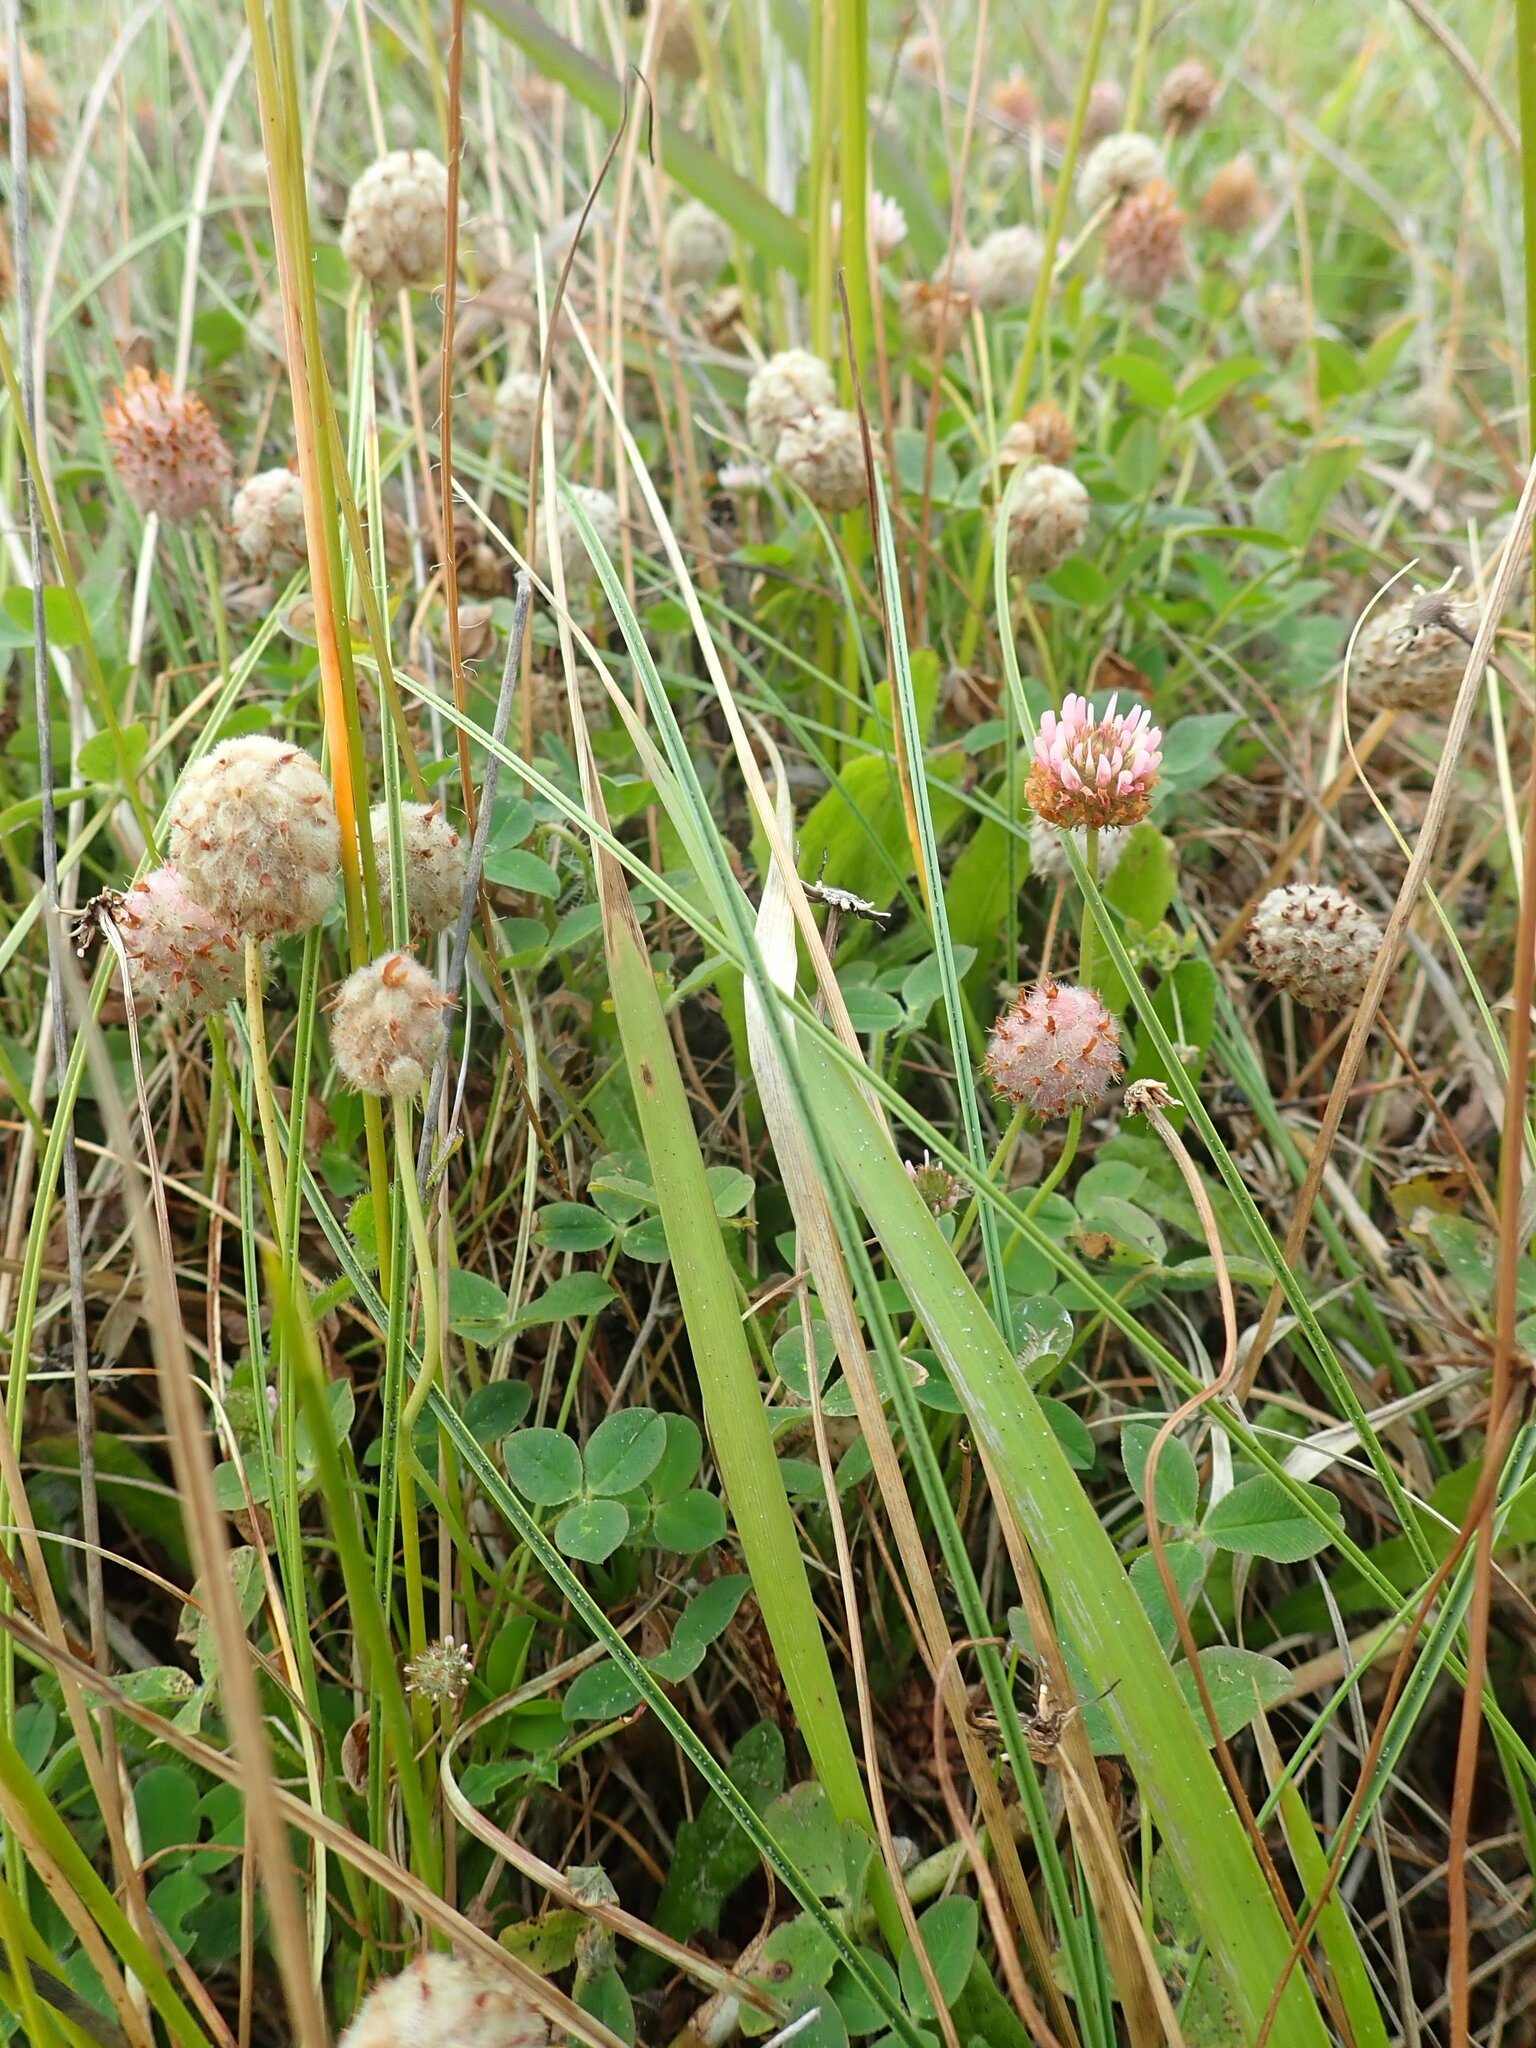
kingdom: Plantae
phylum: Tracheophyta
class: Magnoliopsida
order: Fabales
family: Fabaceae
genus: Trifolium
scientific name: Trifolium fragiferum
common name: Strawberry clover
